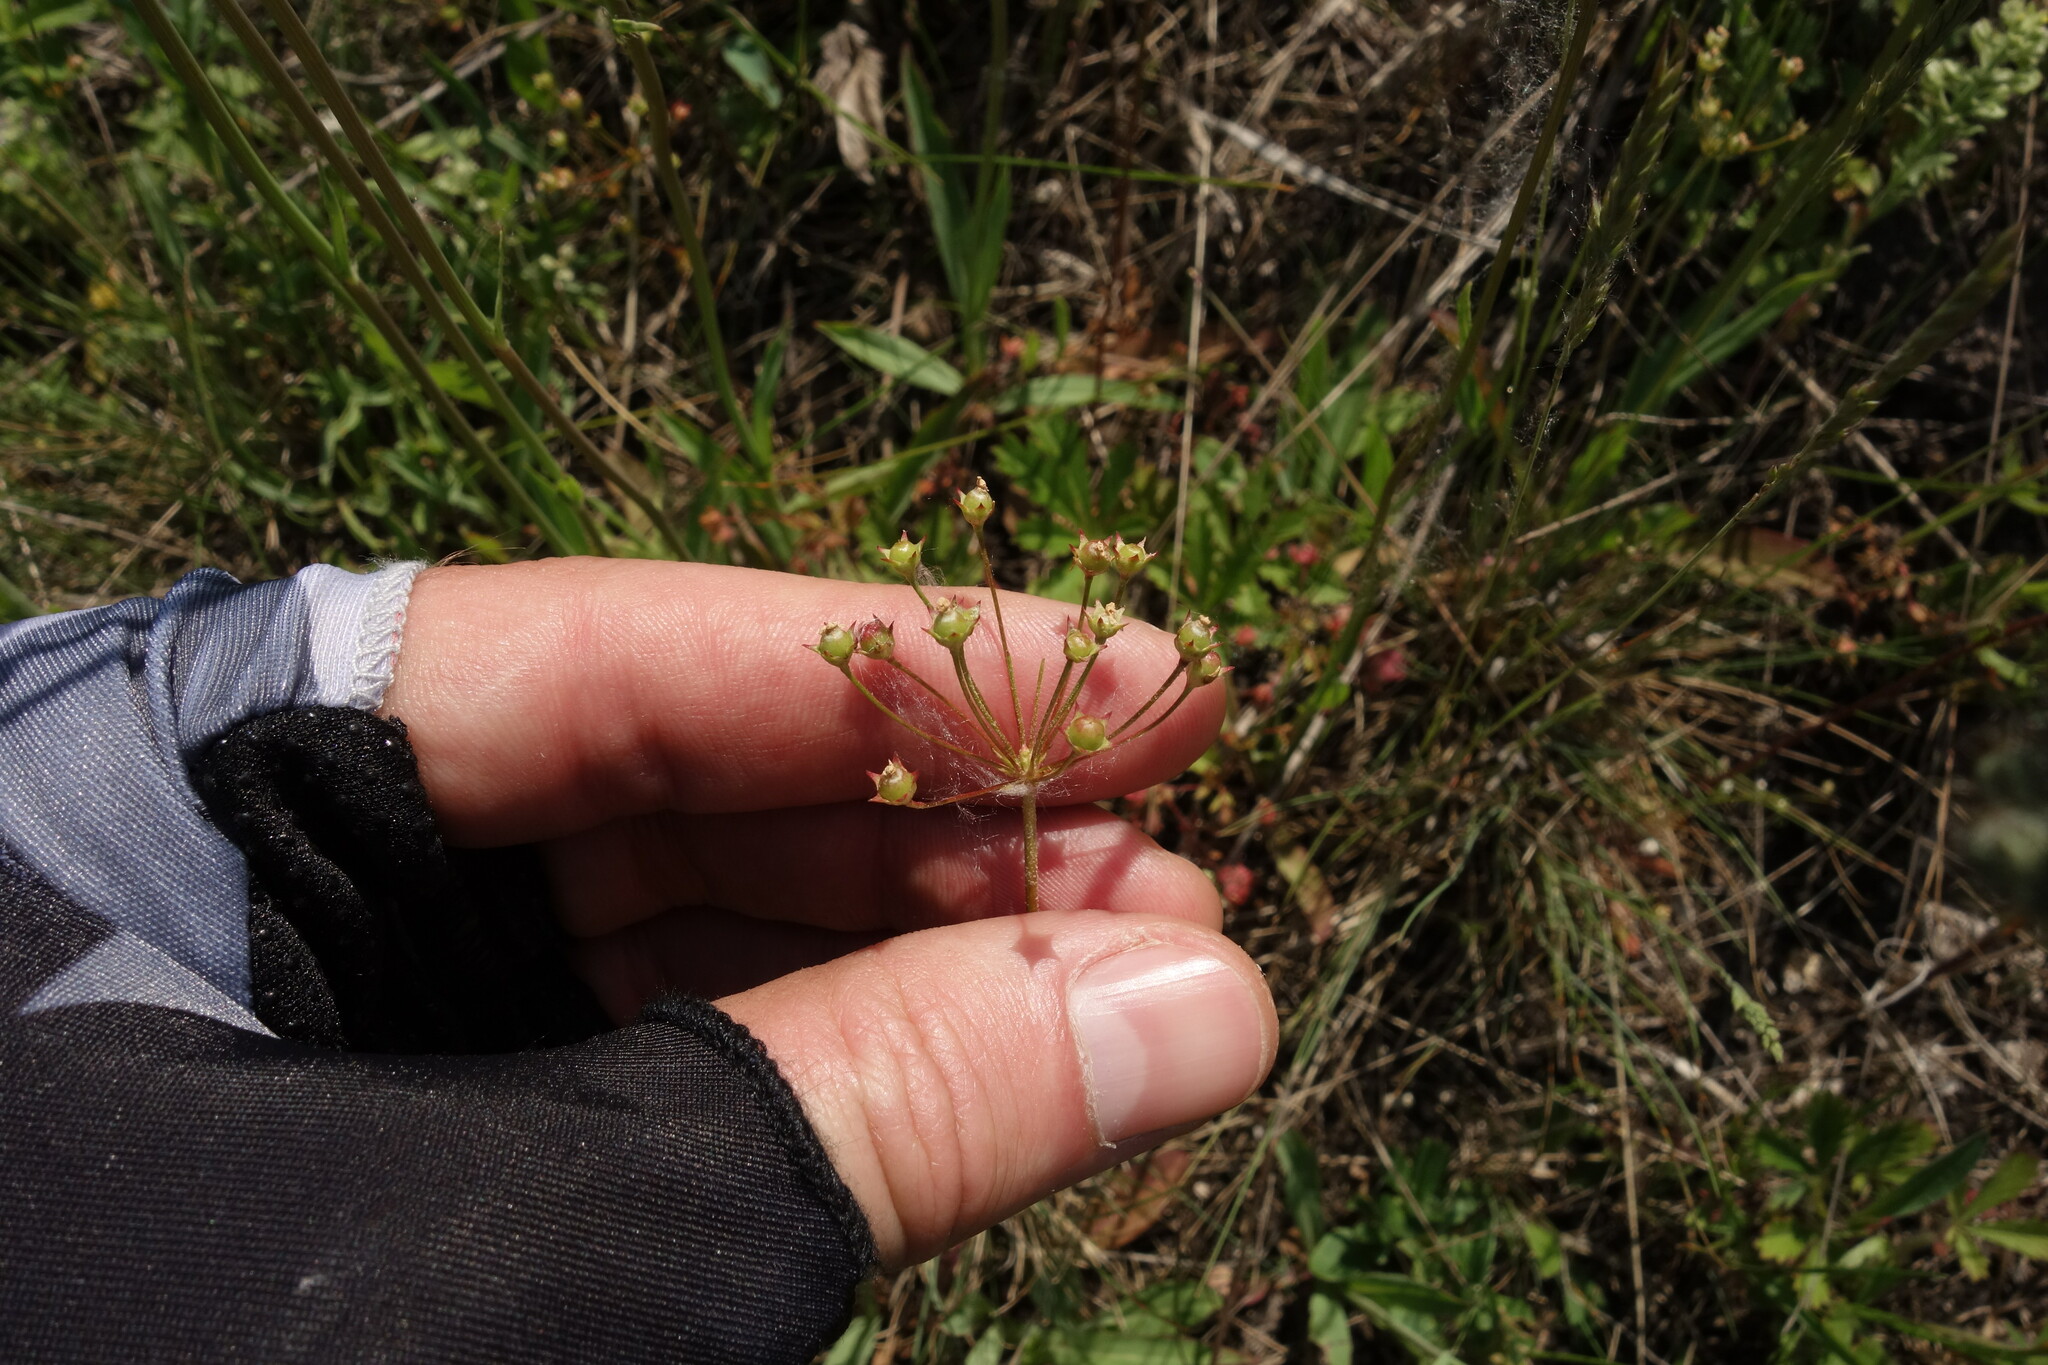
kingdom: Plantae
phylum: Tracheophyta
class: Magnoliopsida
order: Ericales
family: Primulaceae
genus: Androsace
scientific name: Androsace septentrionalis
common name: Hairy northern fairy-candelabra
